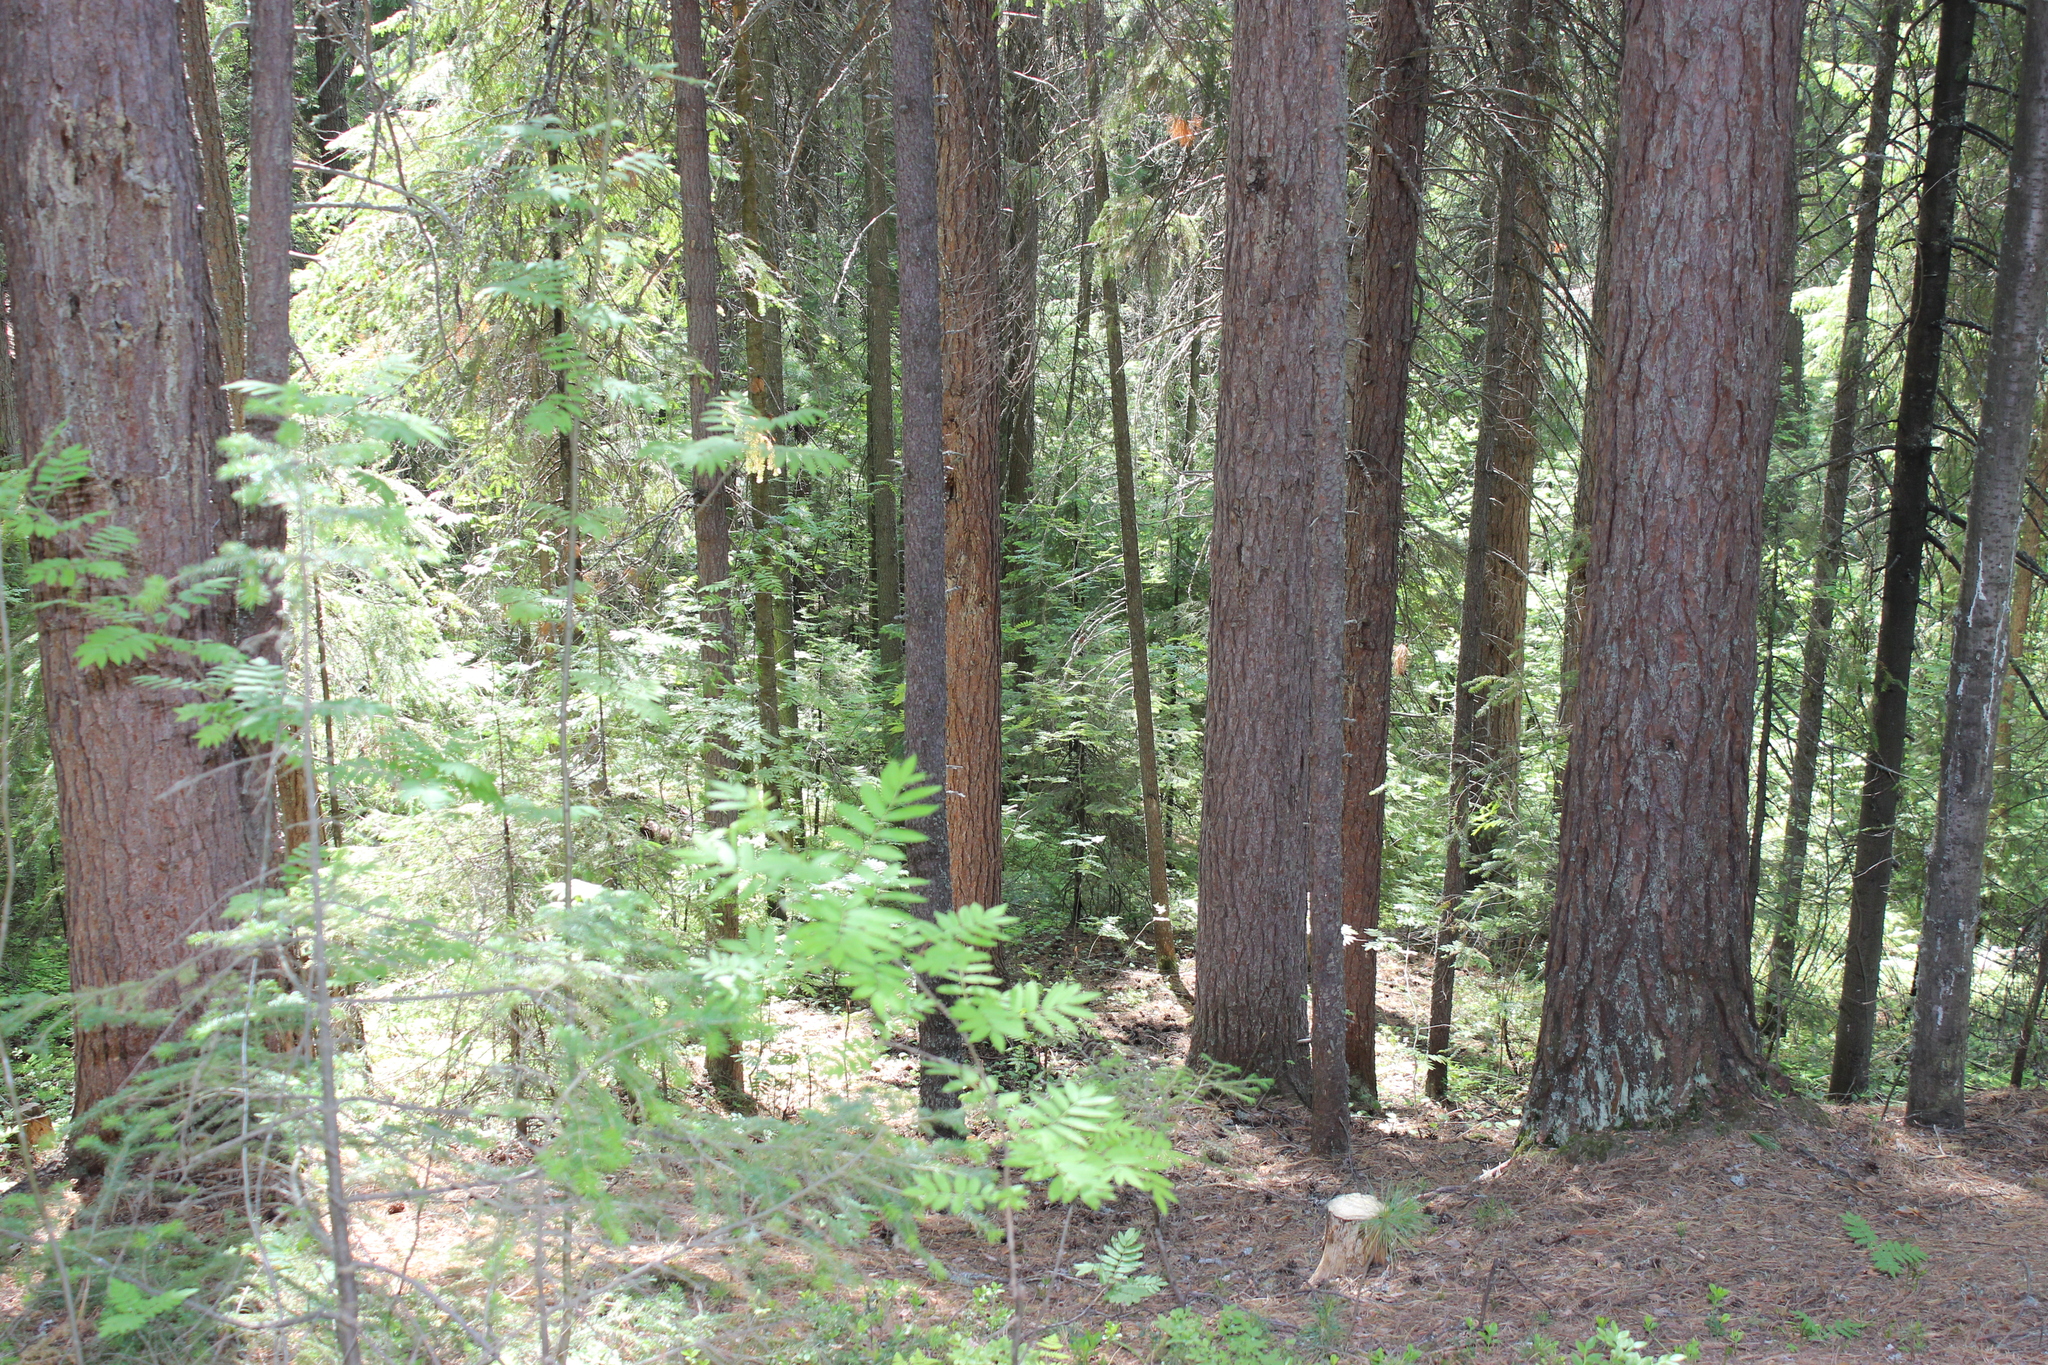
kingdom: Plantae
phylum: Tracheophyta
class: Magnoliopsida
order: Rosales
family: Rosaceae
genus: Sorbus
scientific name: Sorbus aucuparia
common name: Rowan
